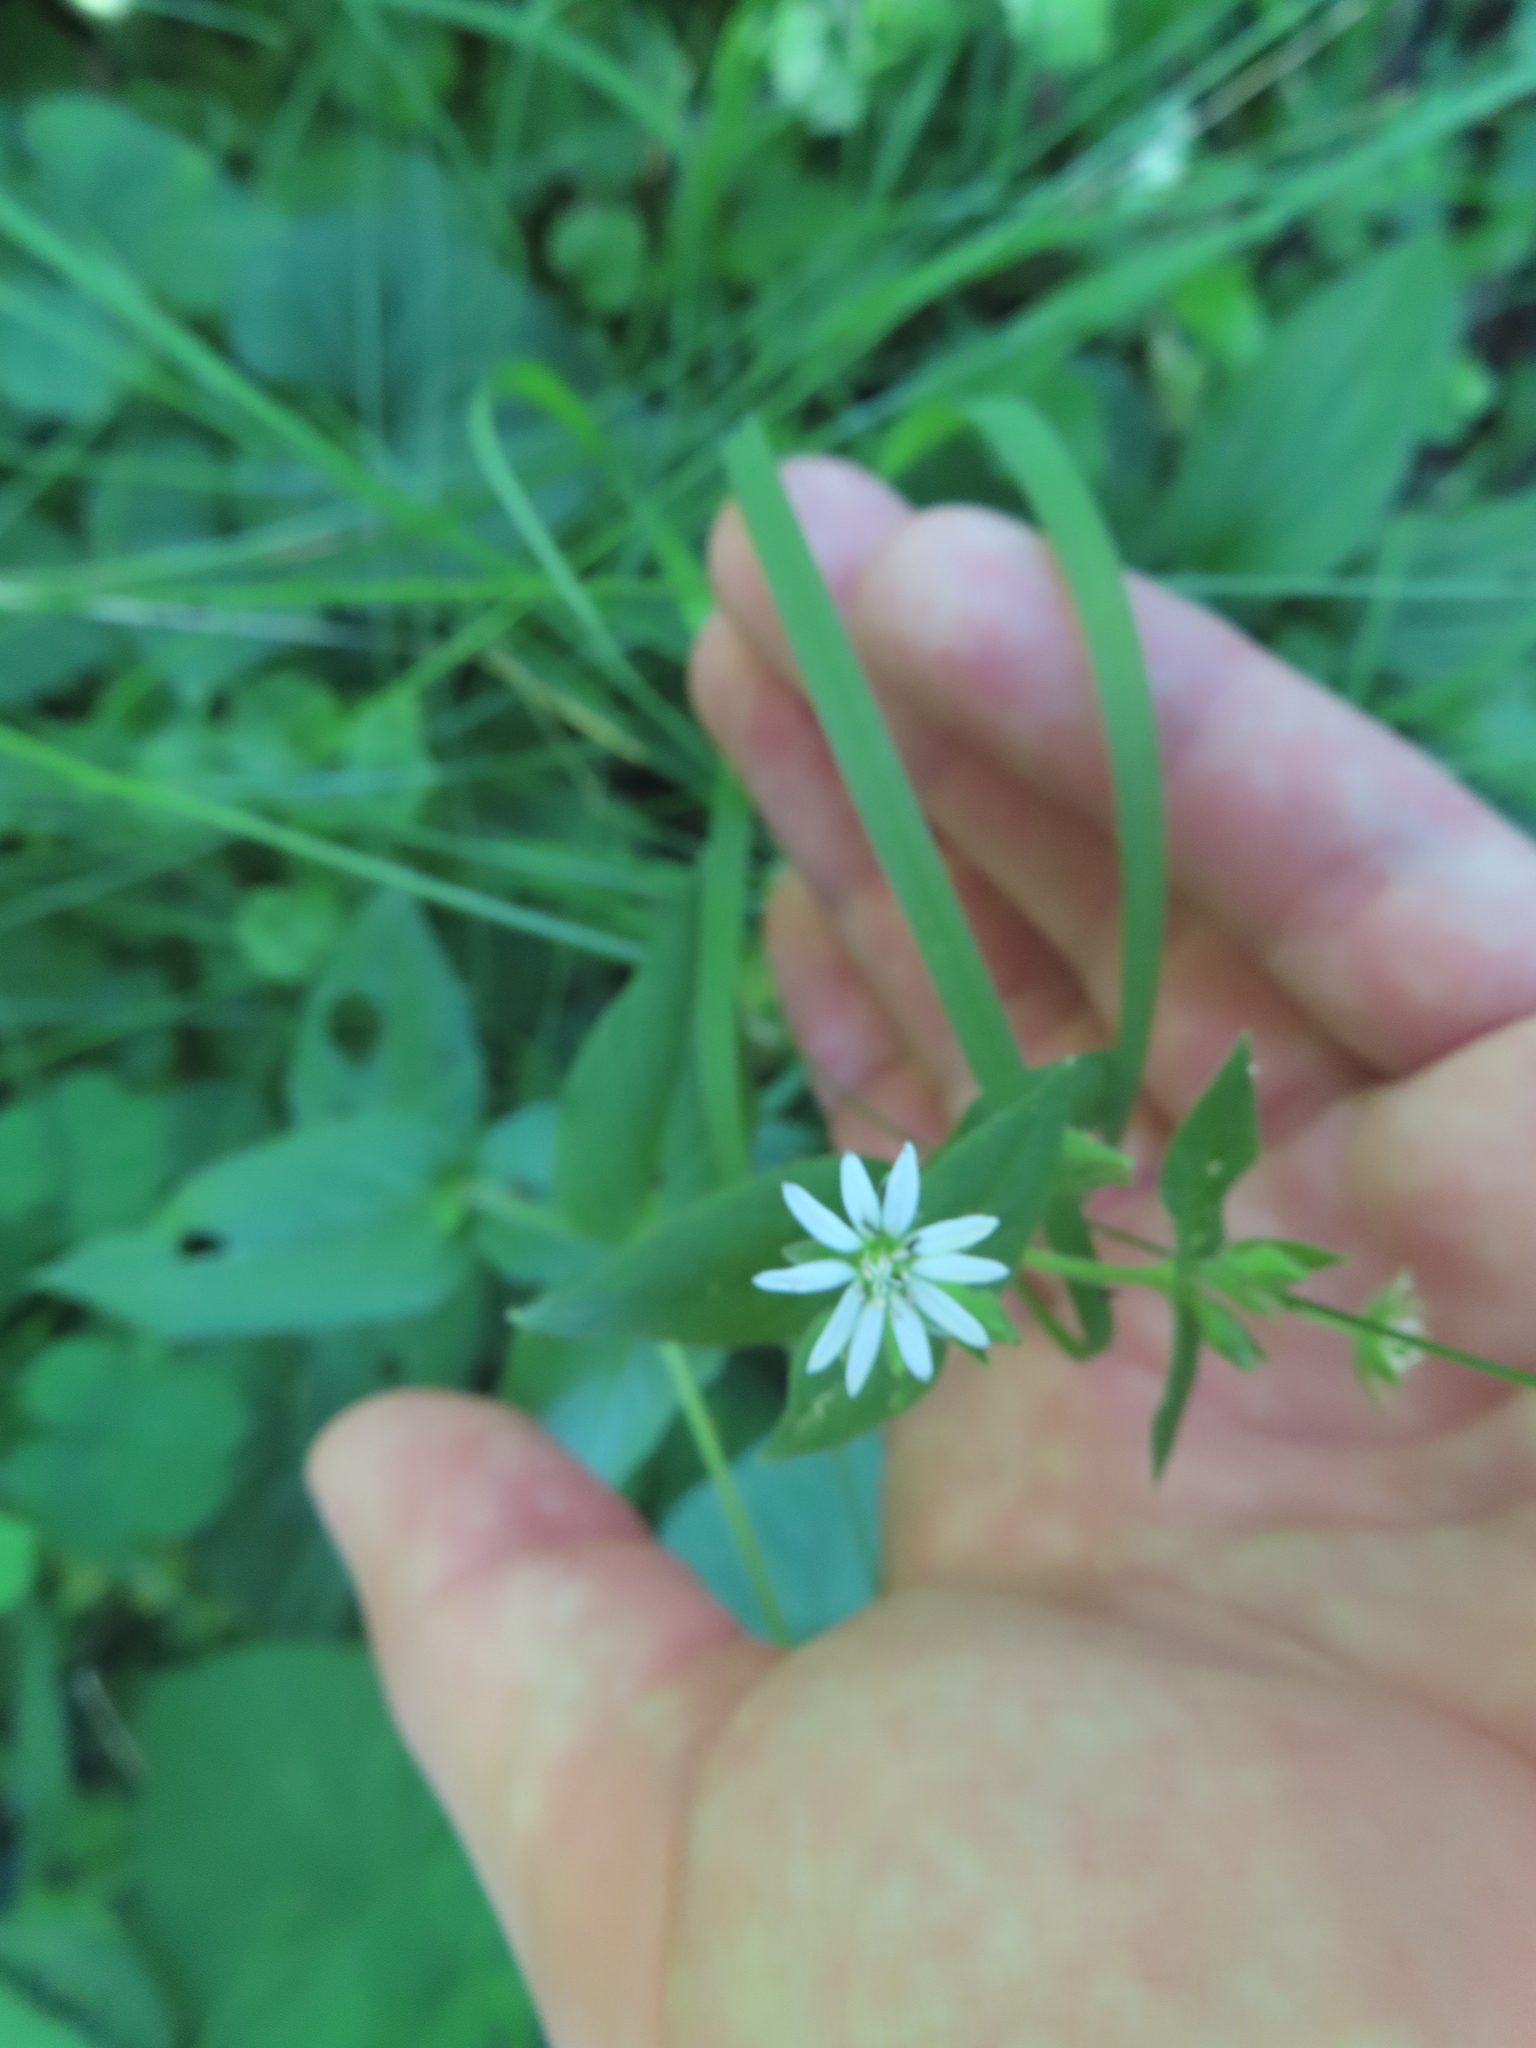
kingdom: Plantae
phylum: Tracheophyta
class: Magnoliopsida
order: Caryophyllales
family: Caryophyllaceae
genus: Stellaria
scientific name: Stellaria aquatica
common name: Water chickweed
